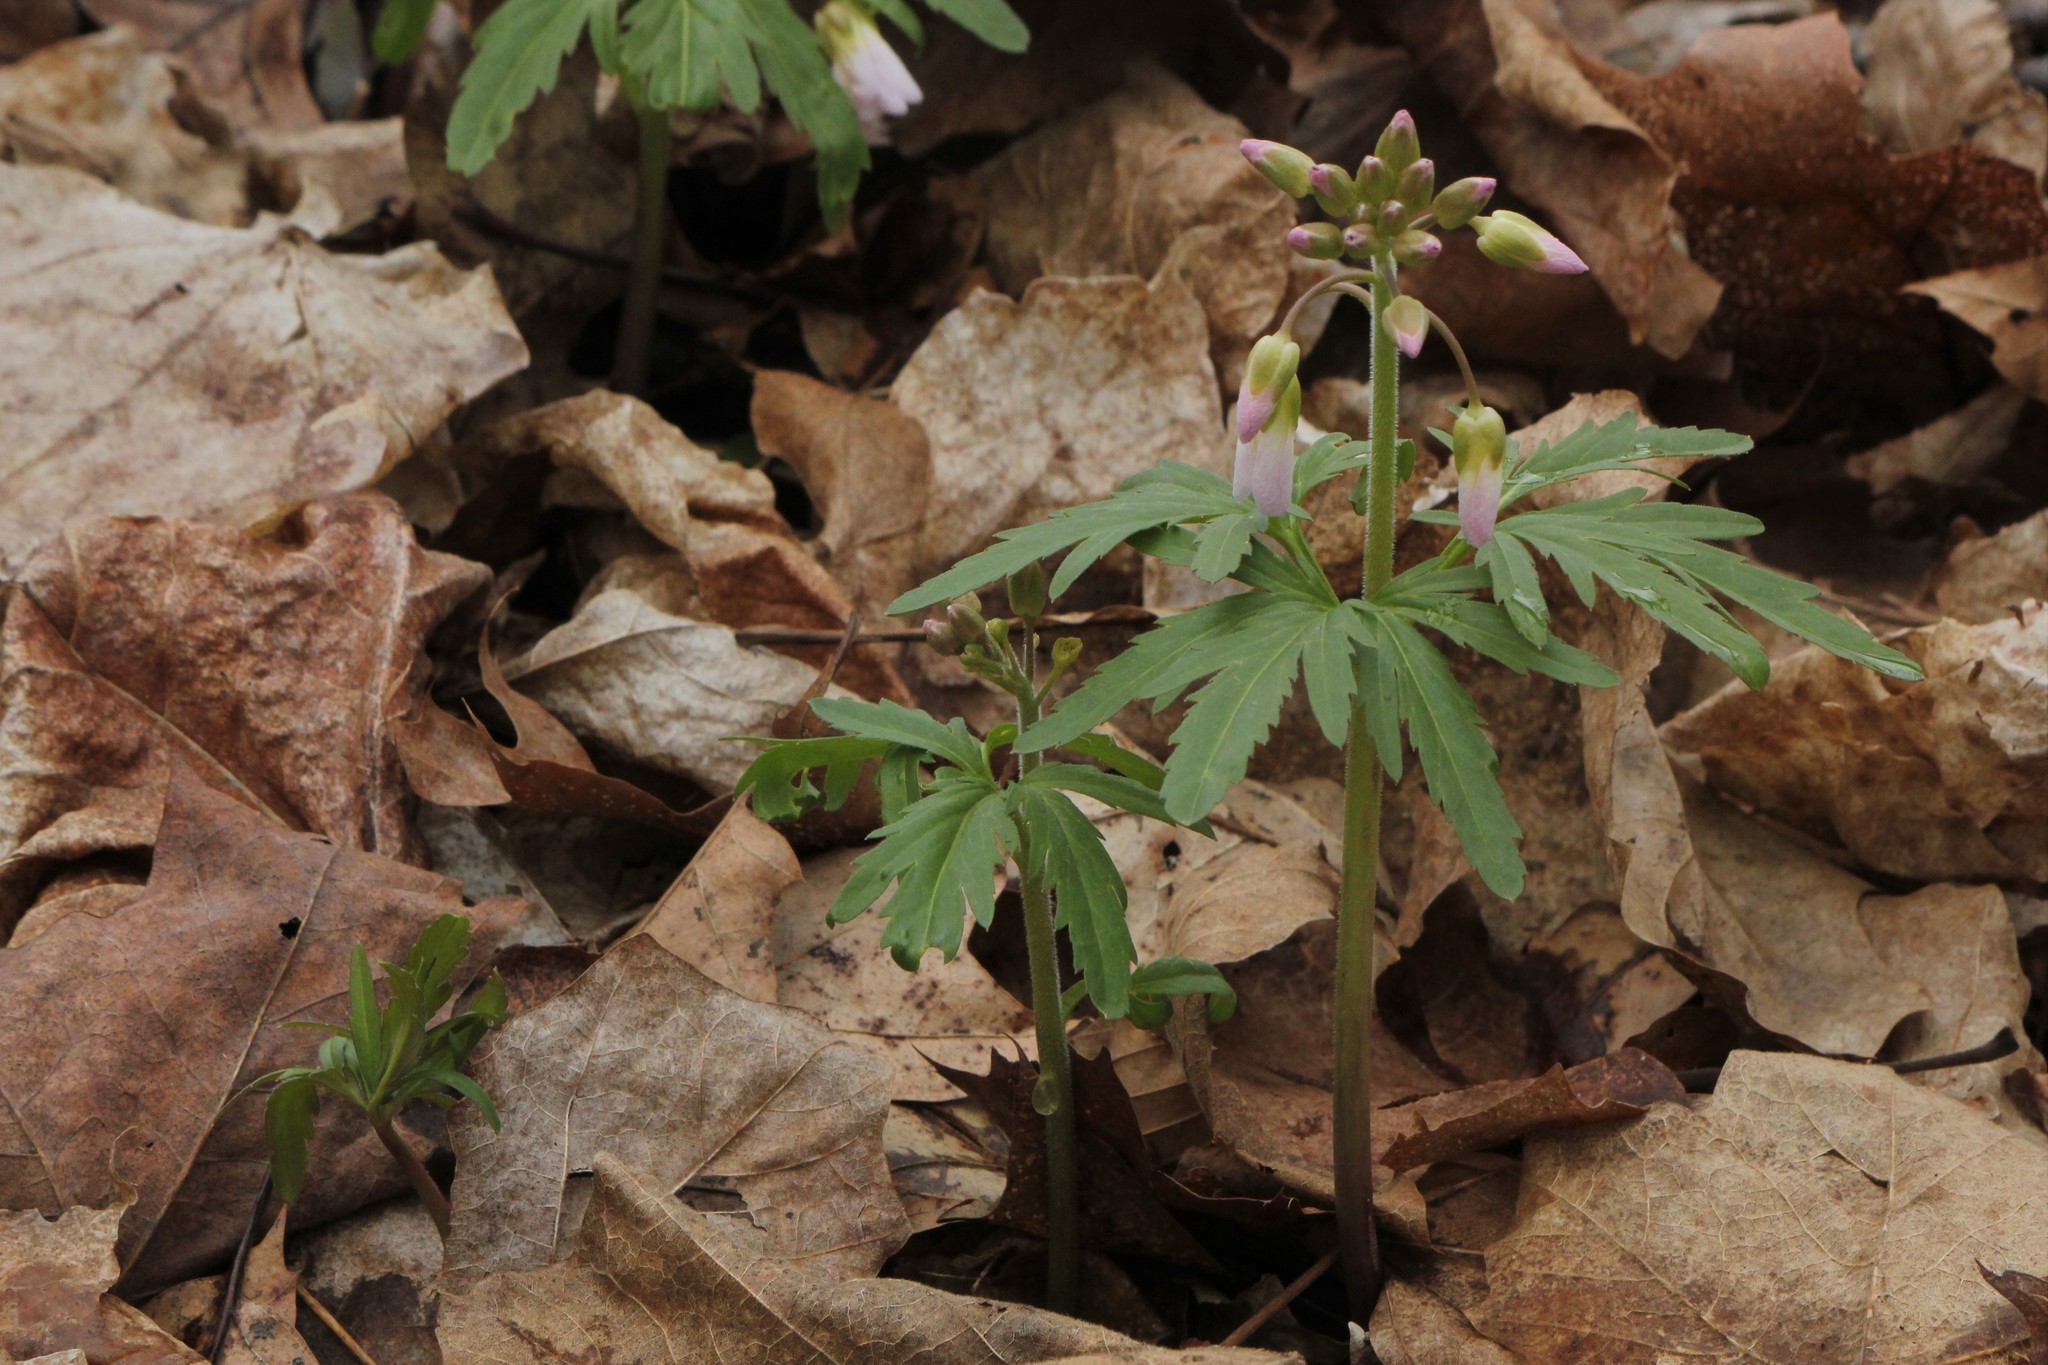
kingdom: Plantae
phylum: Tracheophyta
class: Magnoliopsida
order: Brassicales
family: Brassicaceae
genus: Cardamine
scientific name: Cardamine concatenata
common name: Cut-leaf toothcup
